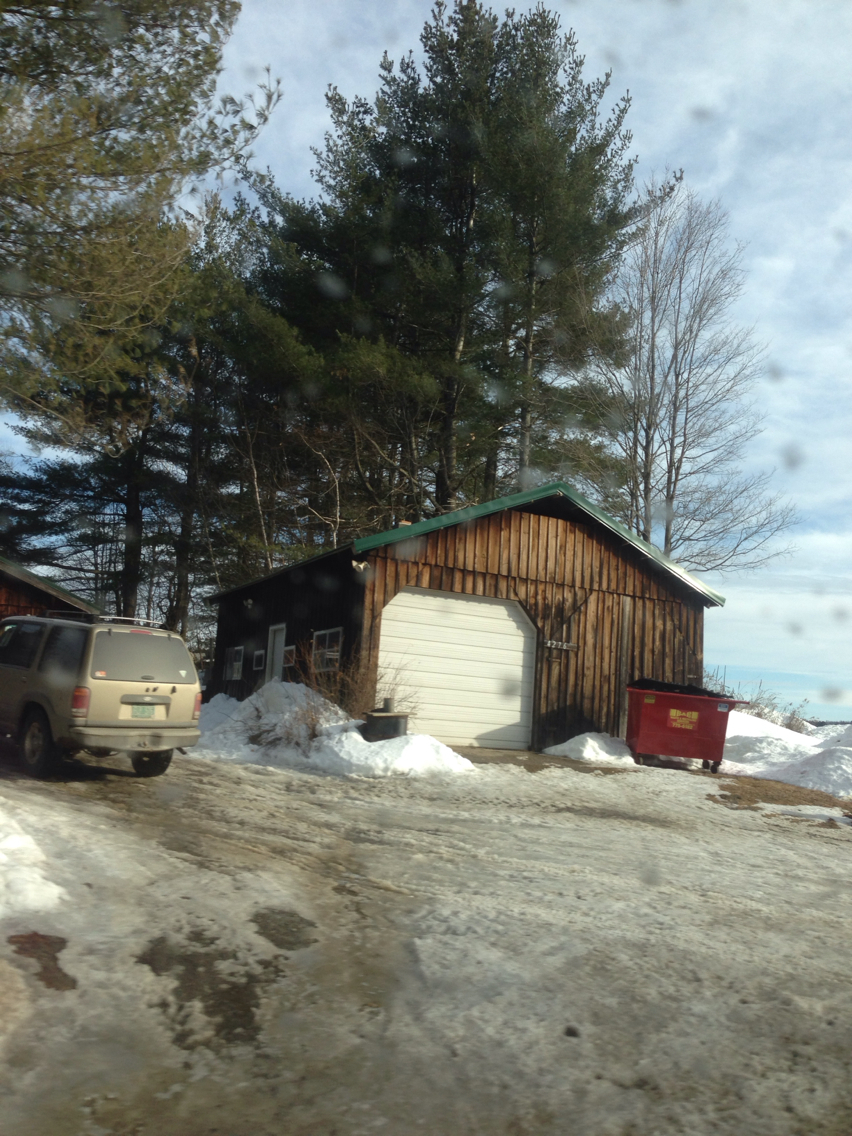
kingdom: Plantae
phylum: Tracheophyta
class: Pinopsida
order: Pinales
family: Pinaceae
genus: Pinus
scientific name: Pinus strobus
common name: Weymouth pine
